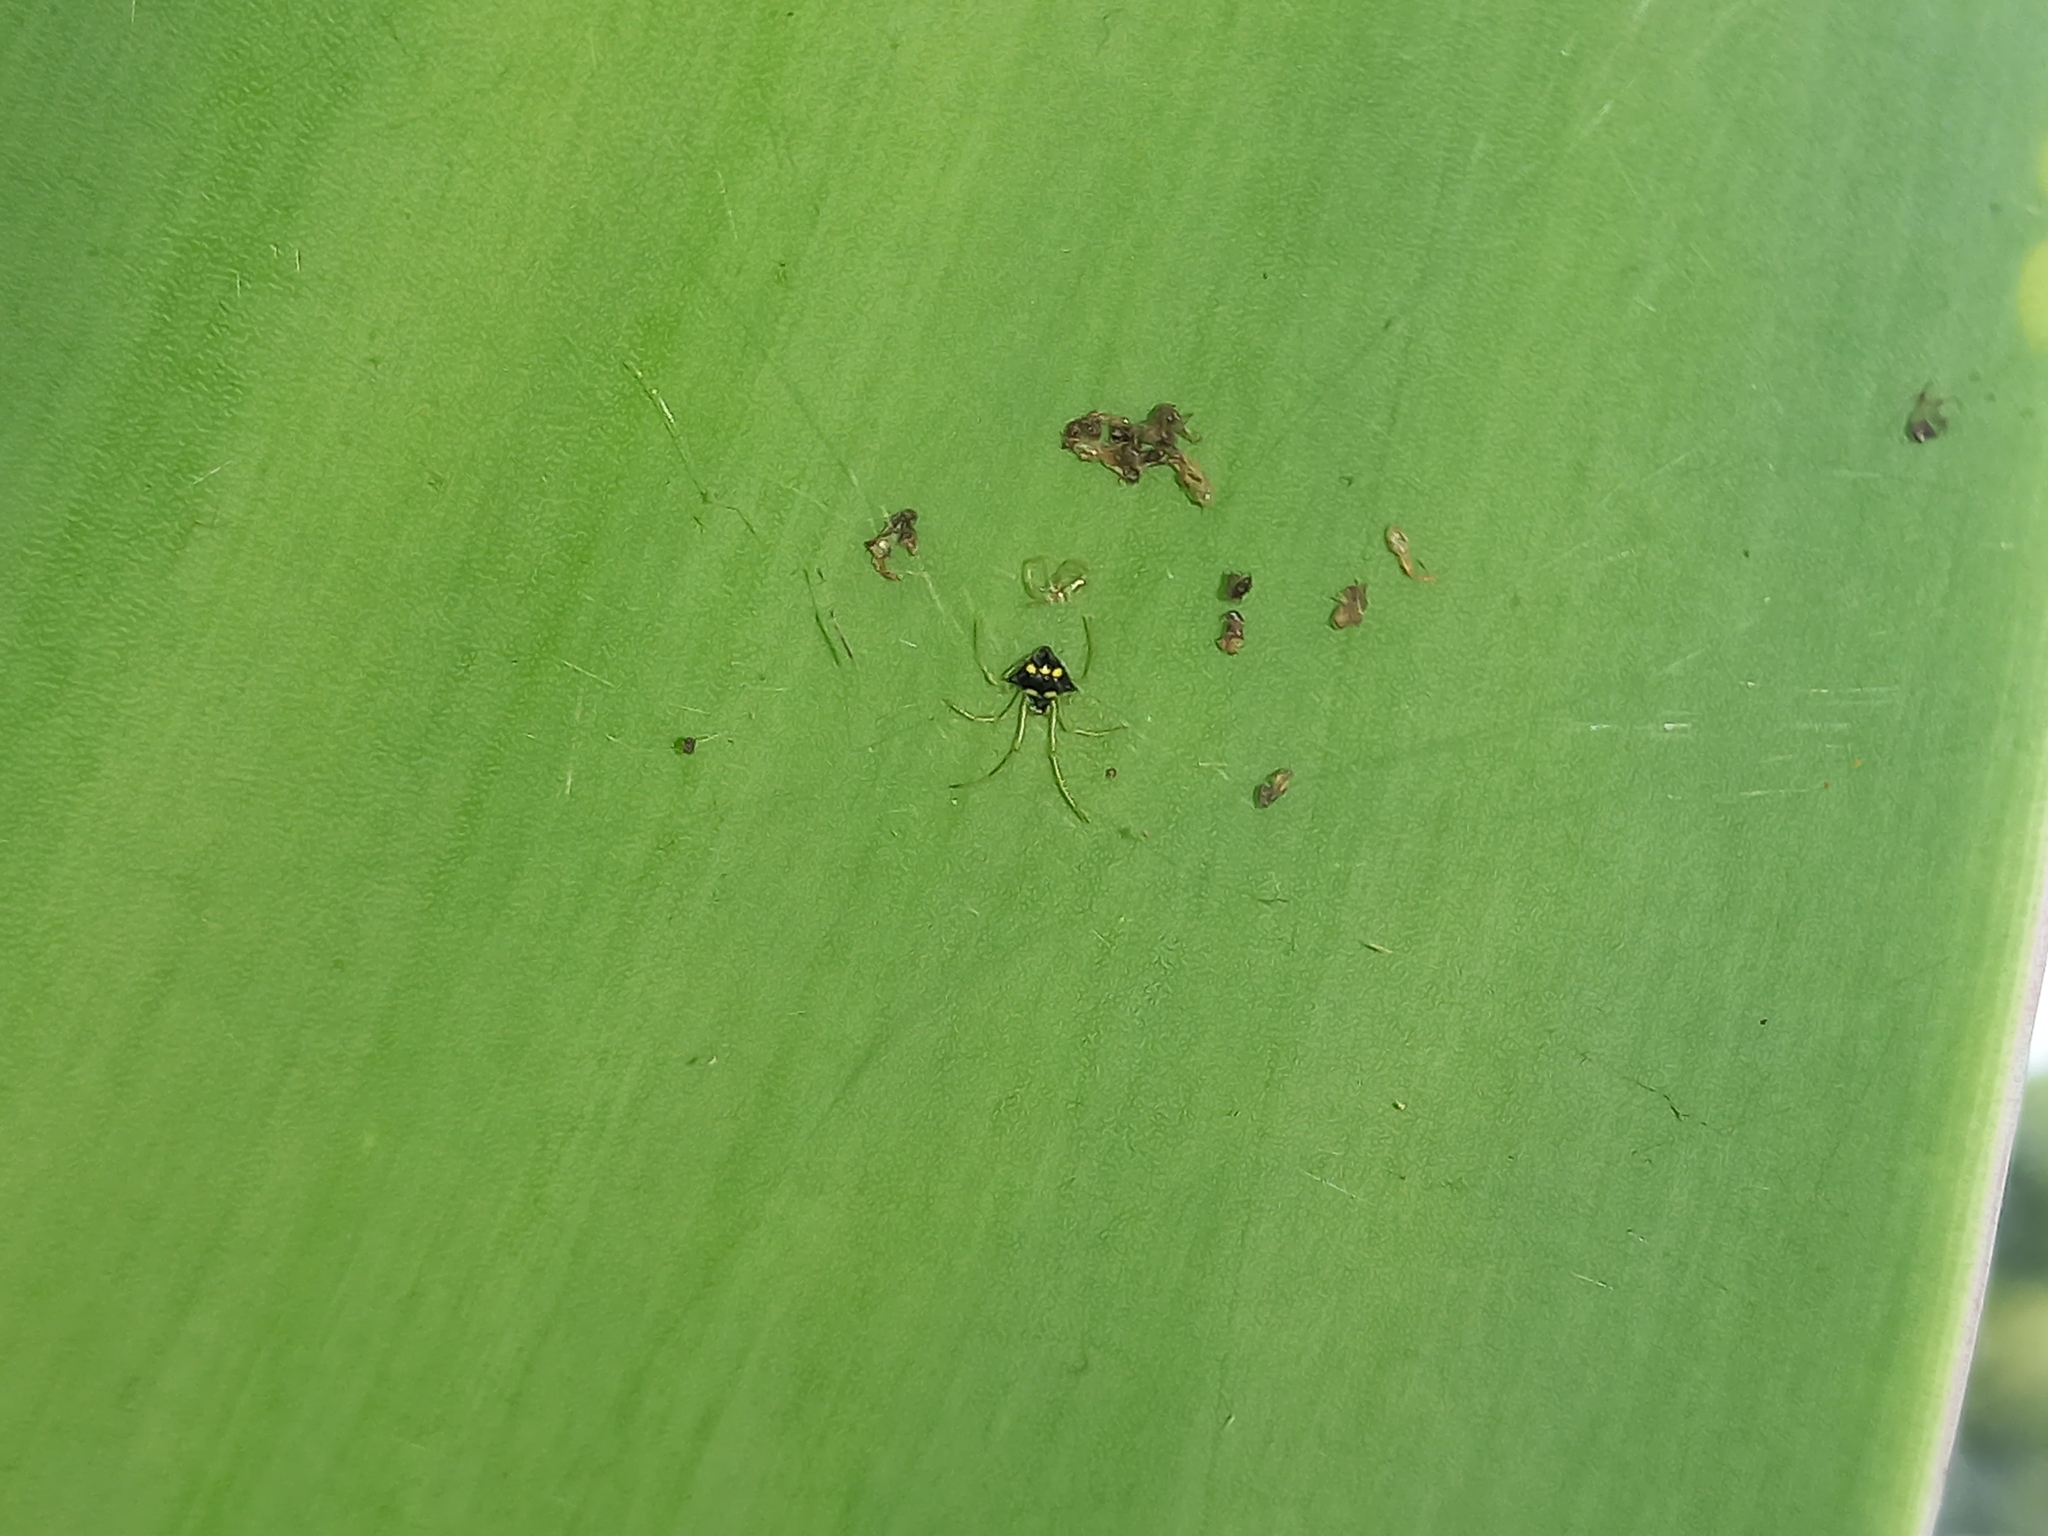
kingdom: Animalia
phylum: Arthropoda
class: Arachnida
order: Araneae
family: Theridiidae
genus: Theridula
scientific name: Theridula gonygaster
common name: Cobweb spiders
